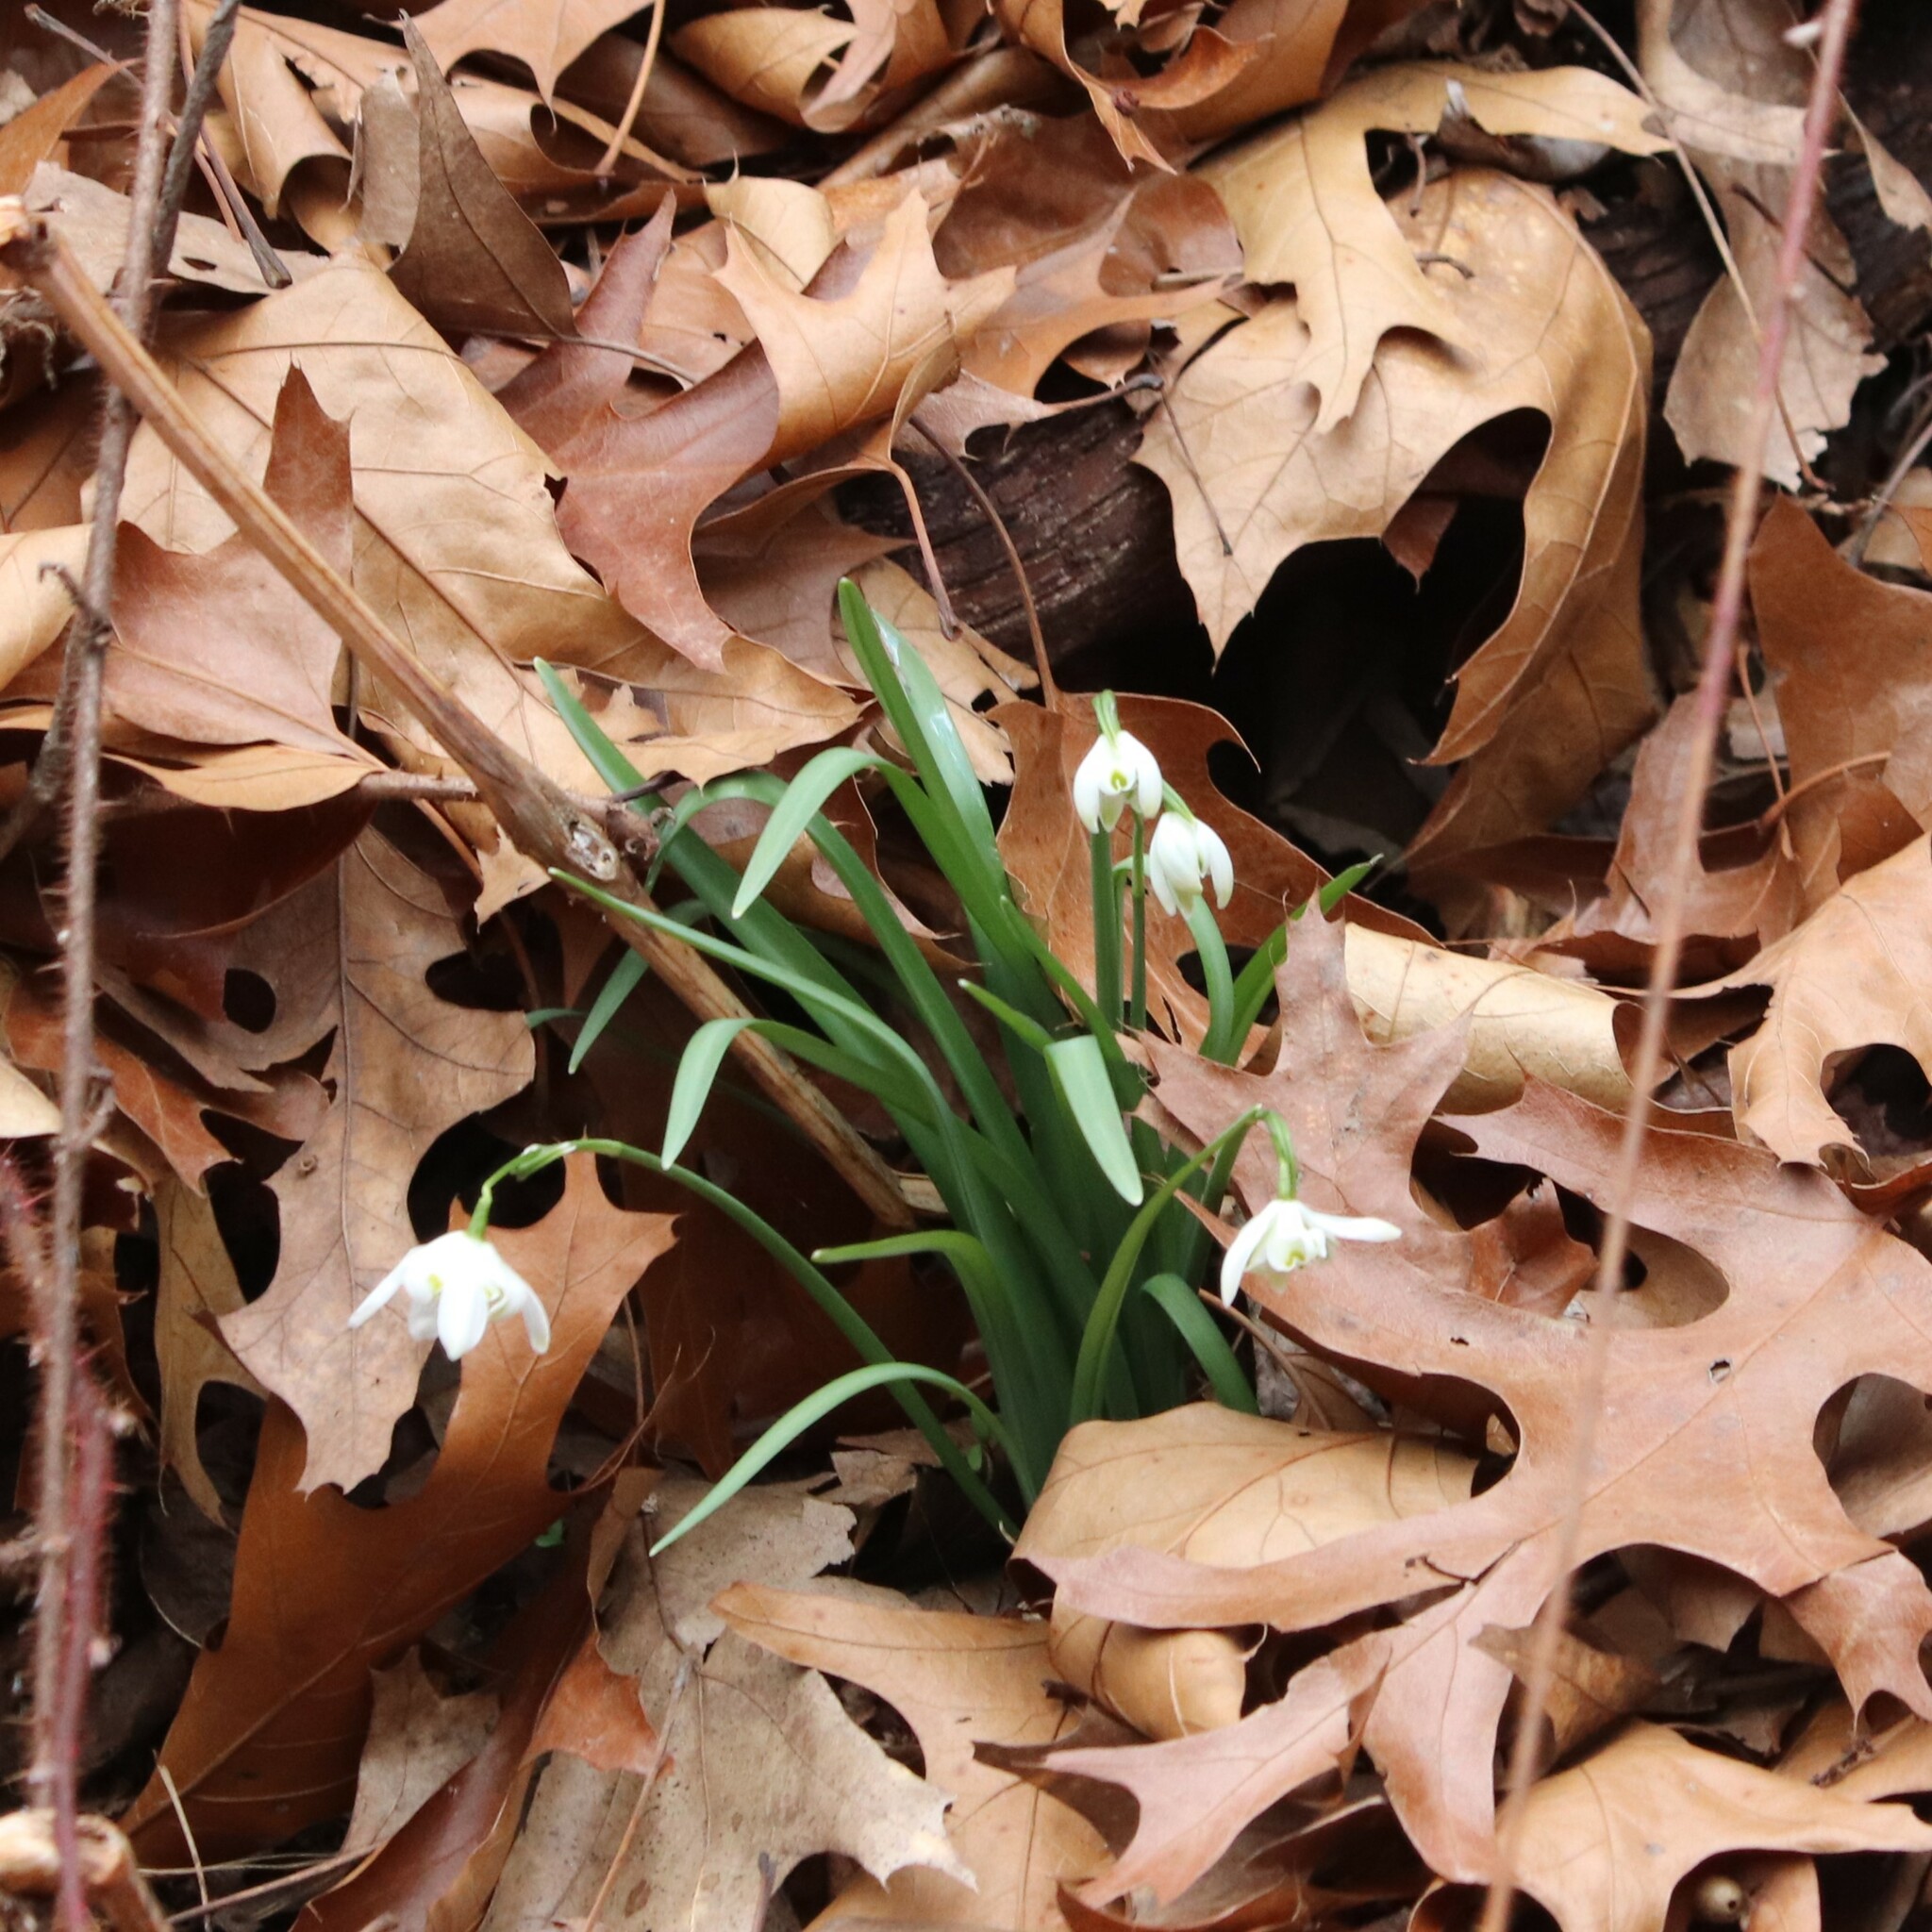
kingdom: Plantae
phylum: Tracheophyta
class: Liliopsida
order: Asparagales
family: Amaryllidaceae
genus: Galanthus
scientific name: Galanthus nivalis
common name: Snowdrop
